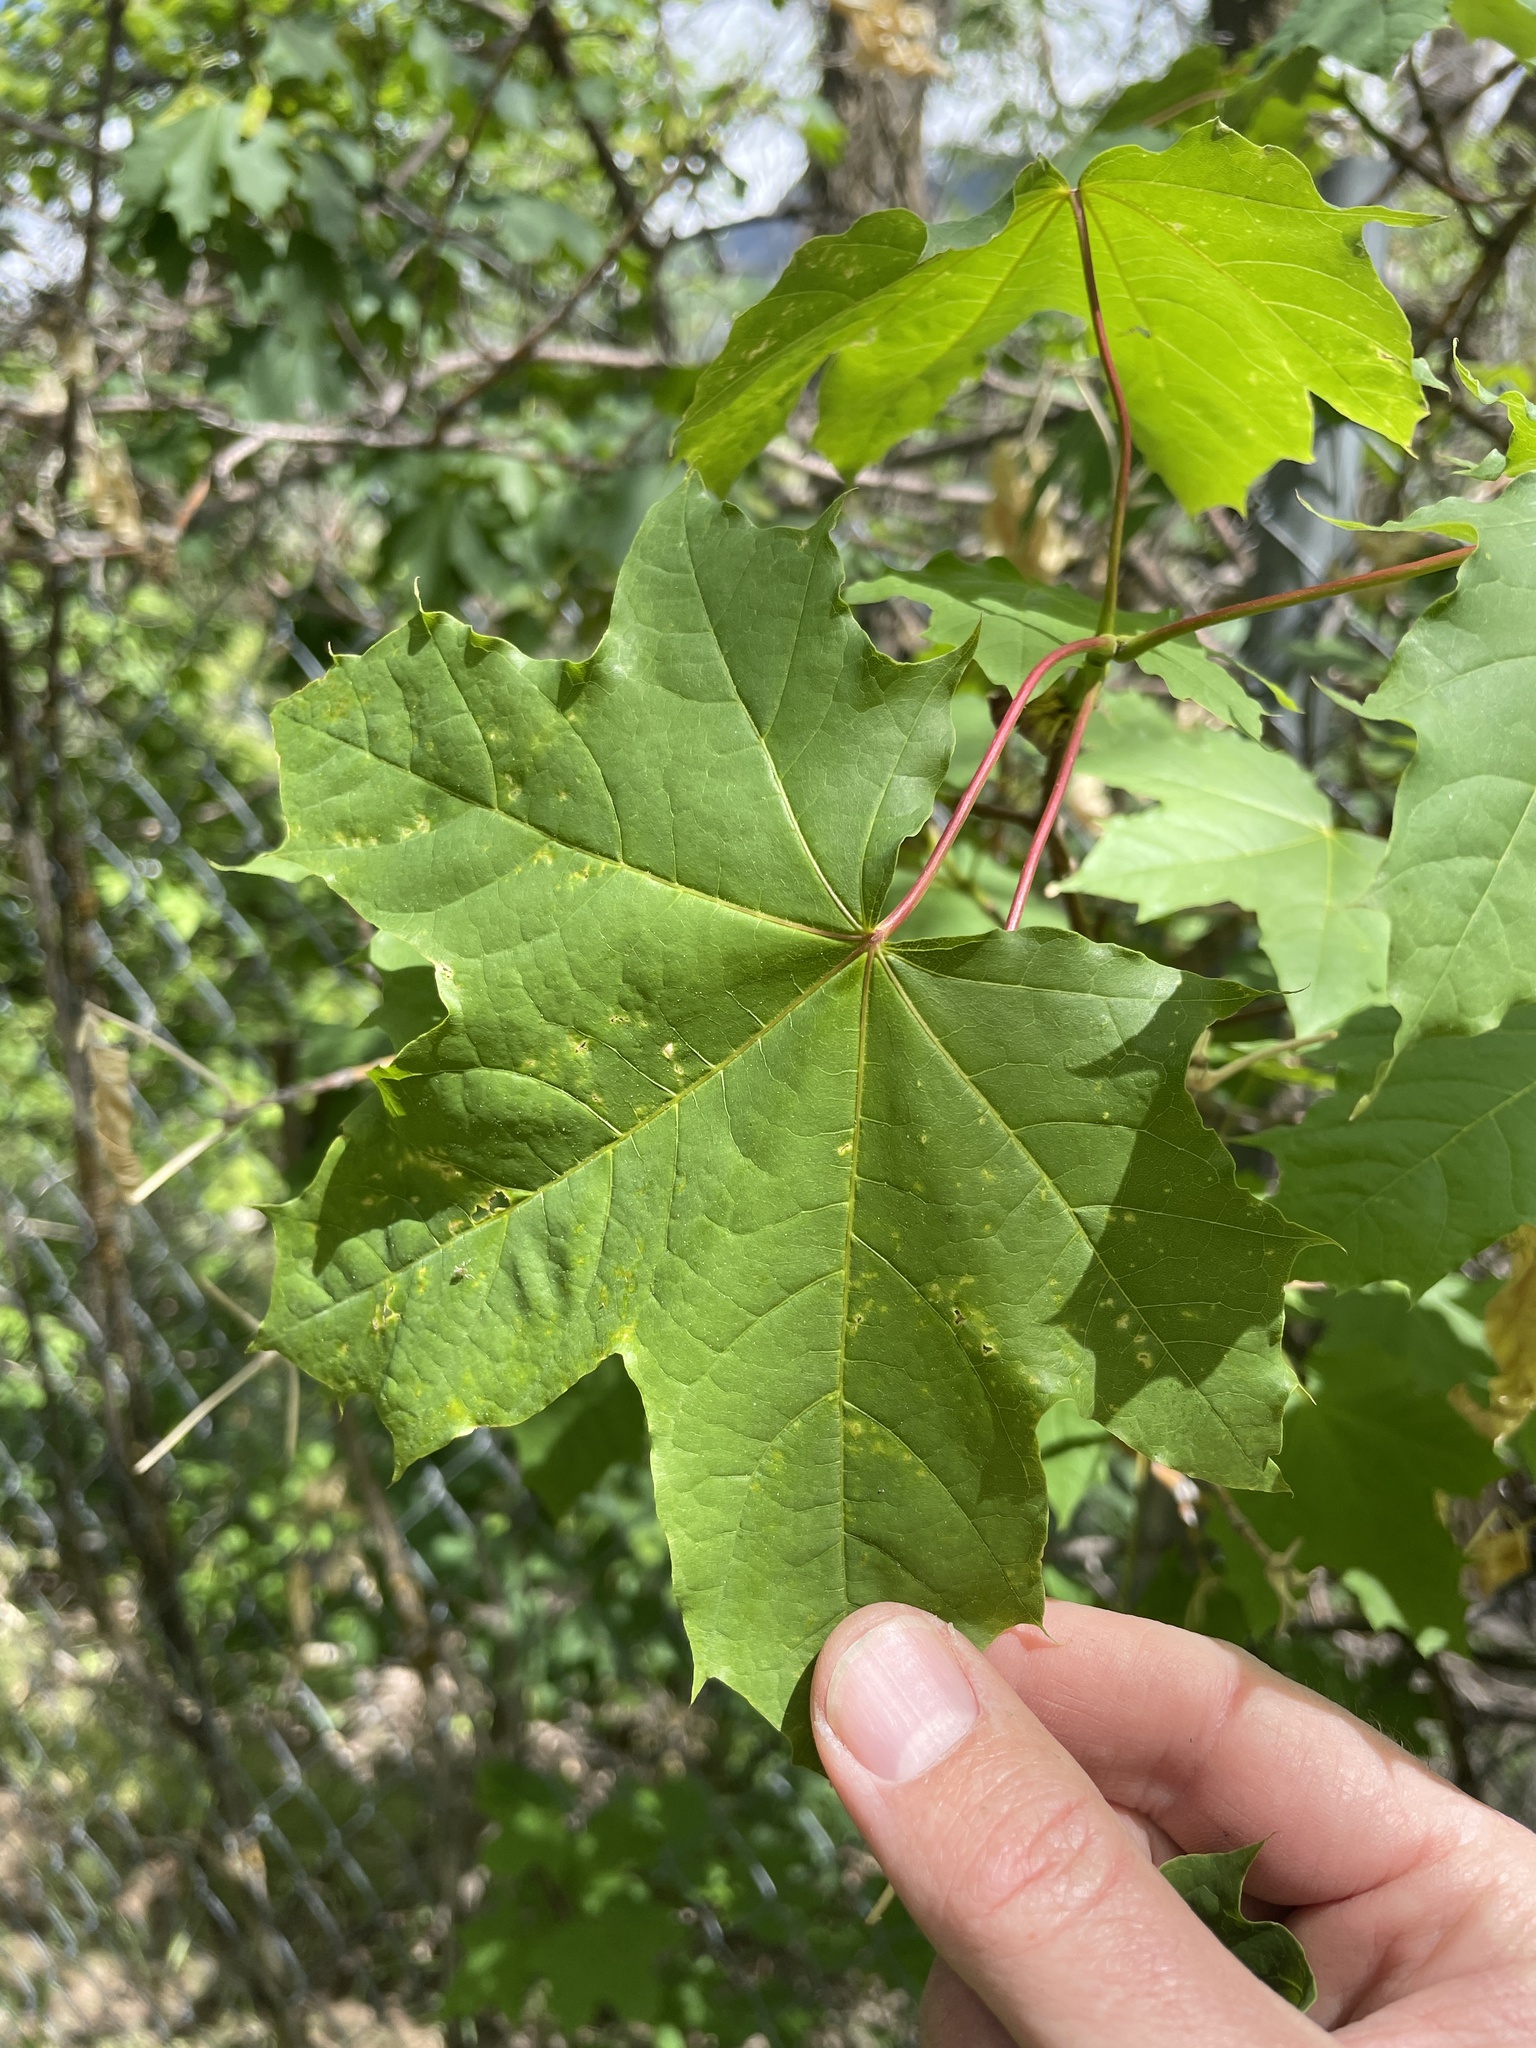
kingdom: Plantae
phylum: Tracheophyta
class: Magnoliopsida
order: Sapindales
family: Sapindaceae
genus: Acer
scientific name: Acer platanoides
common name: Norway maple
